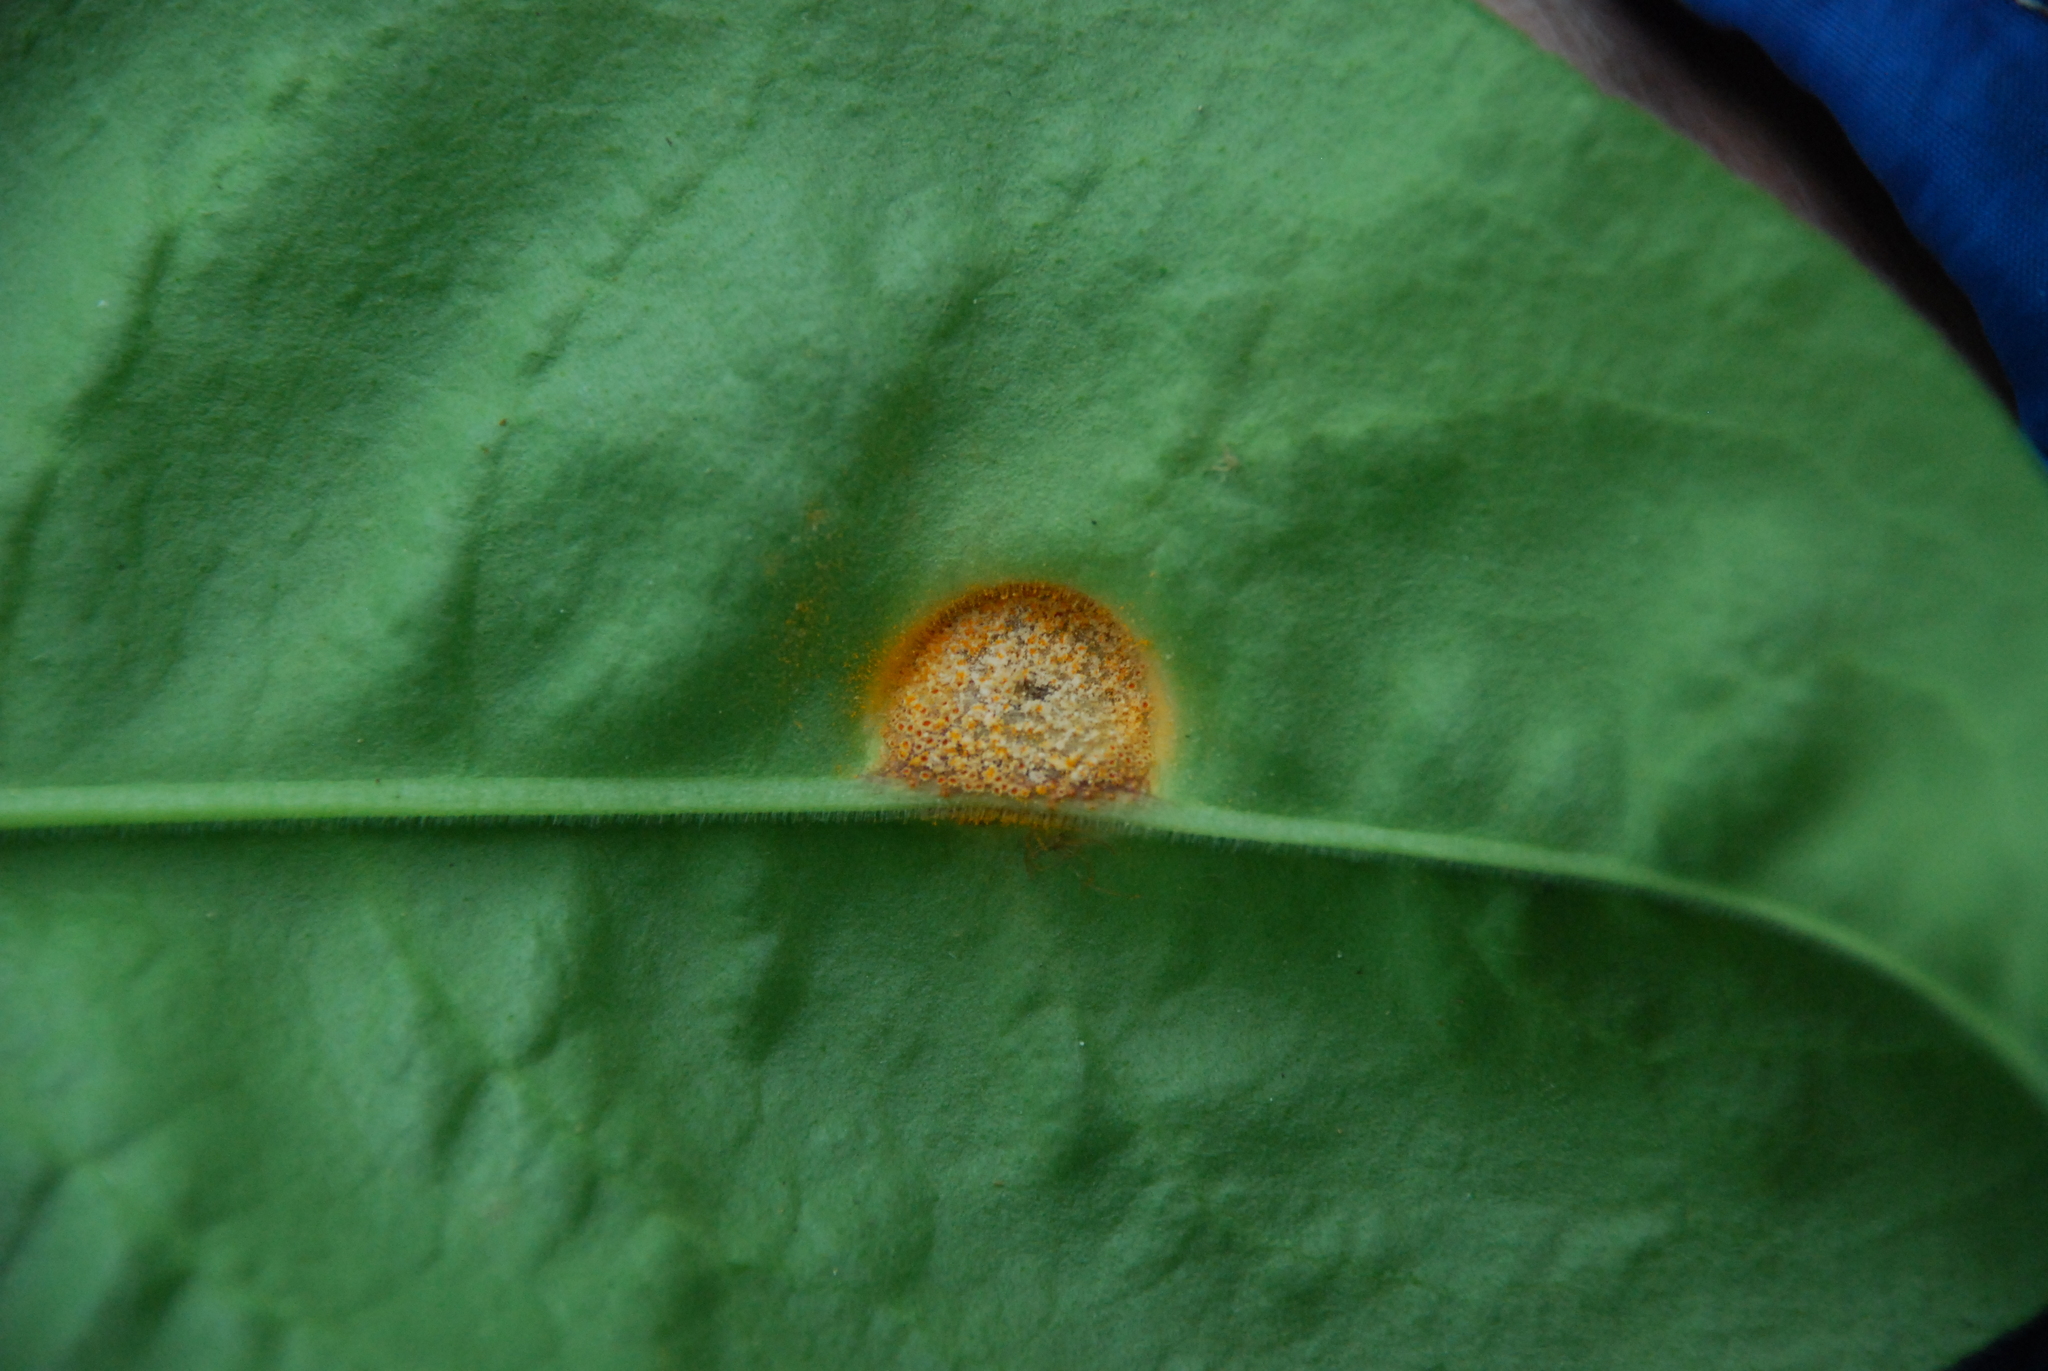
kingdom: Fungi
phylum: Basidiomycota
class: Pucciniomycetes
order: Pucciniales
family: Pucciniaceae
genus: Puccinia
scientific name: Puccinia bromina
